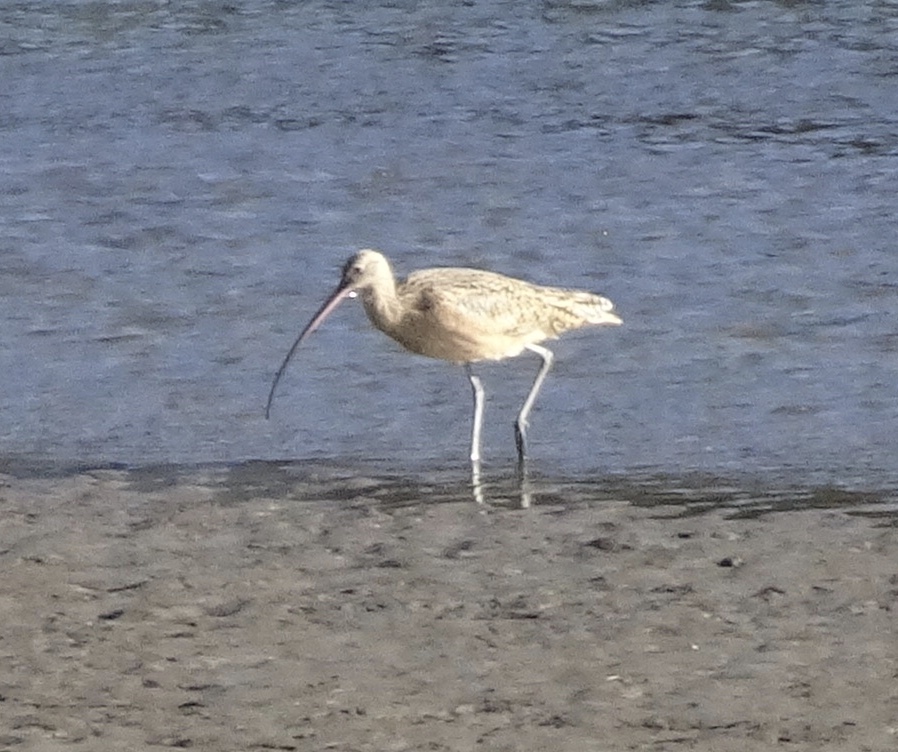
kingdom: Animalia
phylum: Chordata
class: Aves
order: Charadriiformes
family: Scolopacidae
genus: Numenius
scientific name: Numenius americanus
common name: Long-billed curlew
